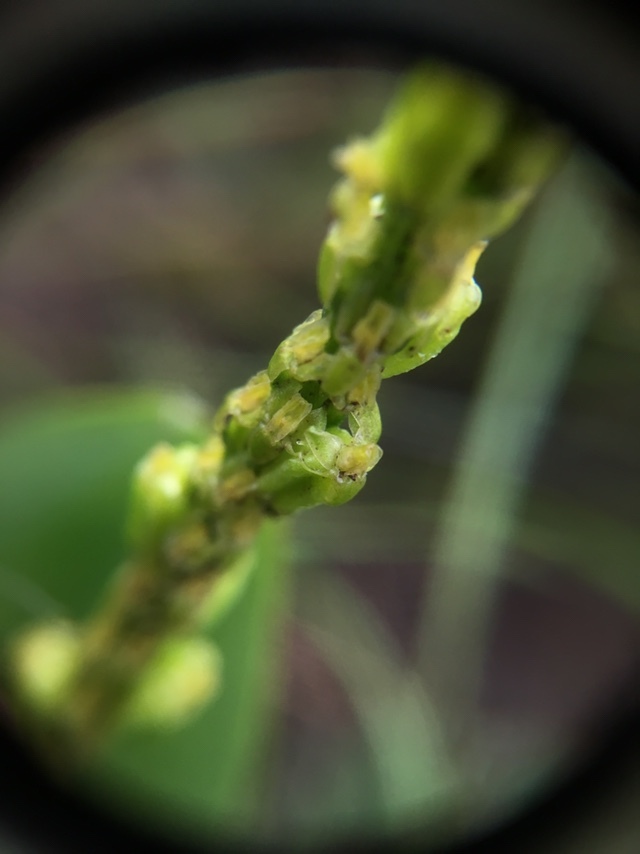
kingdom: Plantae
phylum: Tracheophyta
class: Liliopsida
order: Asparagales
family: Orchidaceae
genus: Malaxis
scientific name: Malaxis macrostachya
